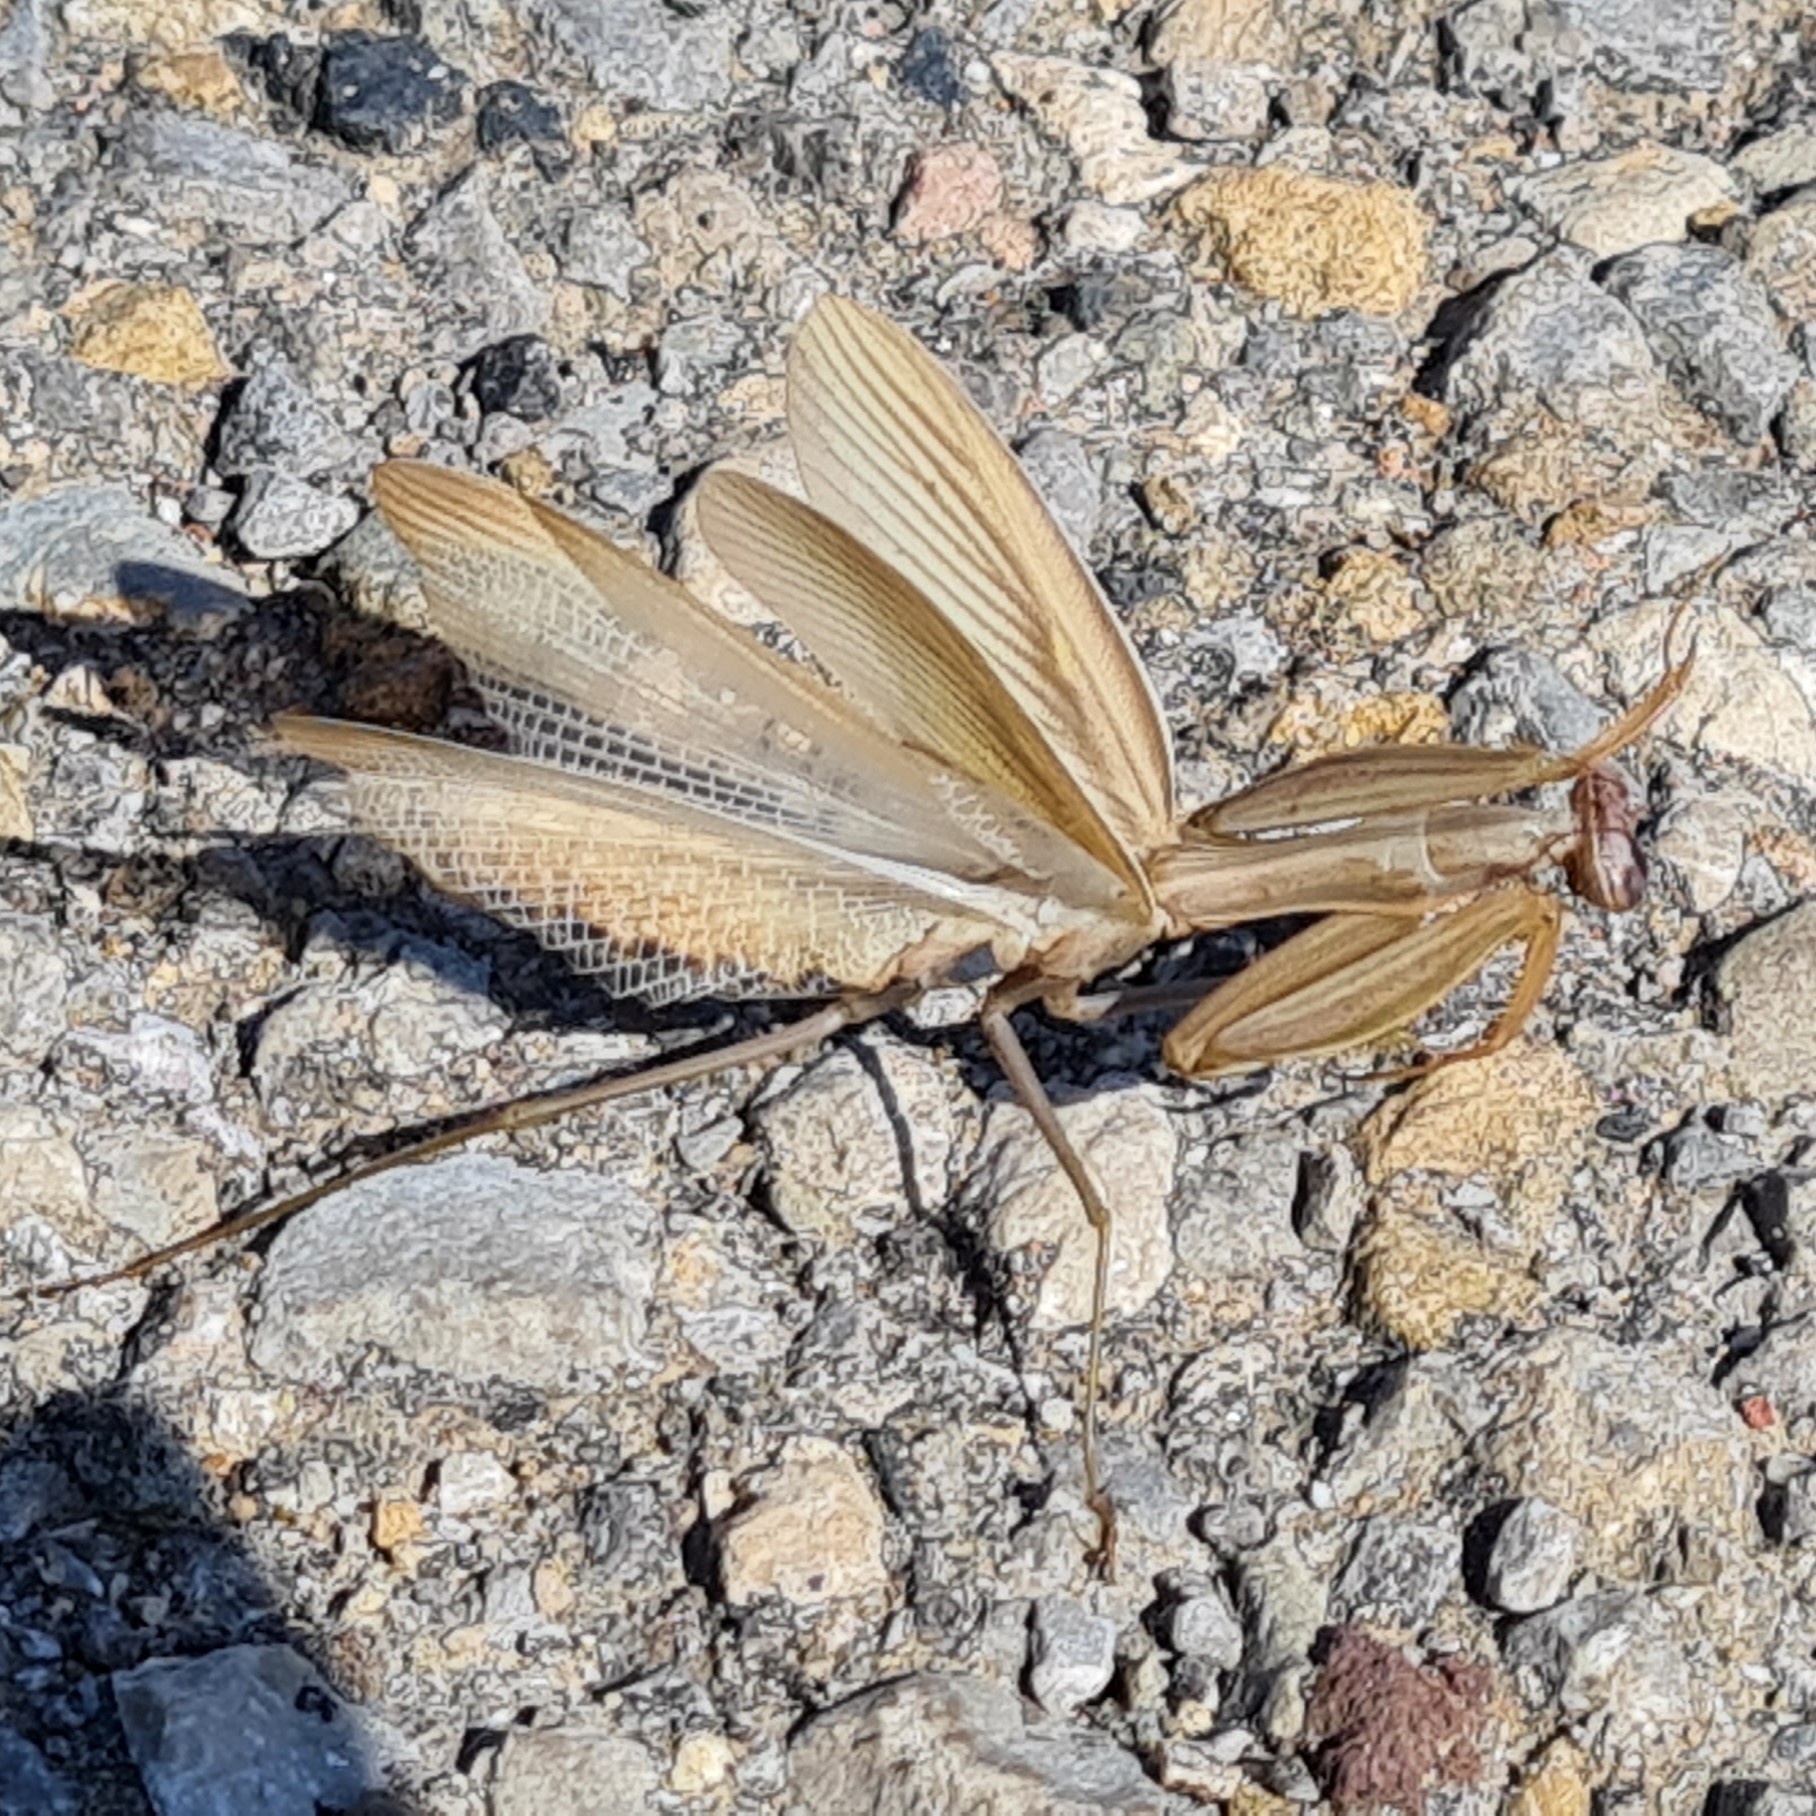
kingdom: Animalia
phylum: Arthropoda
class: Insecta
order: Mantodea
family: Mantidae
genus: Mantis
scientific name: Mantis religiosa
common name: Praying mantis
